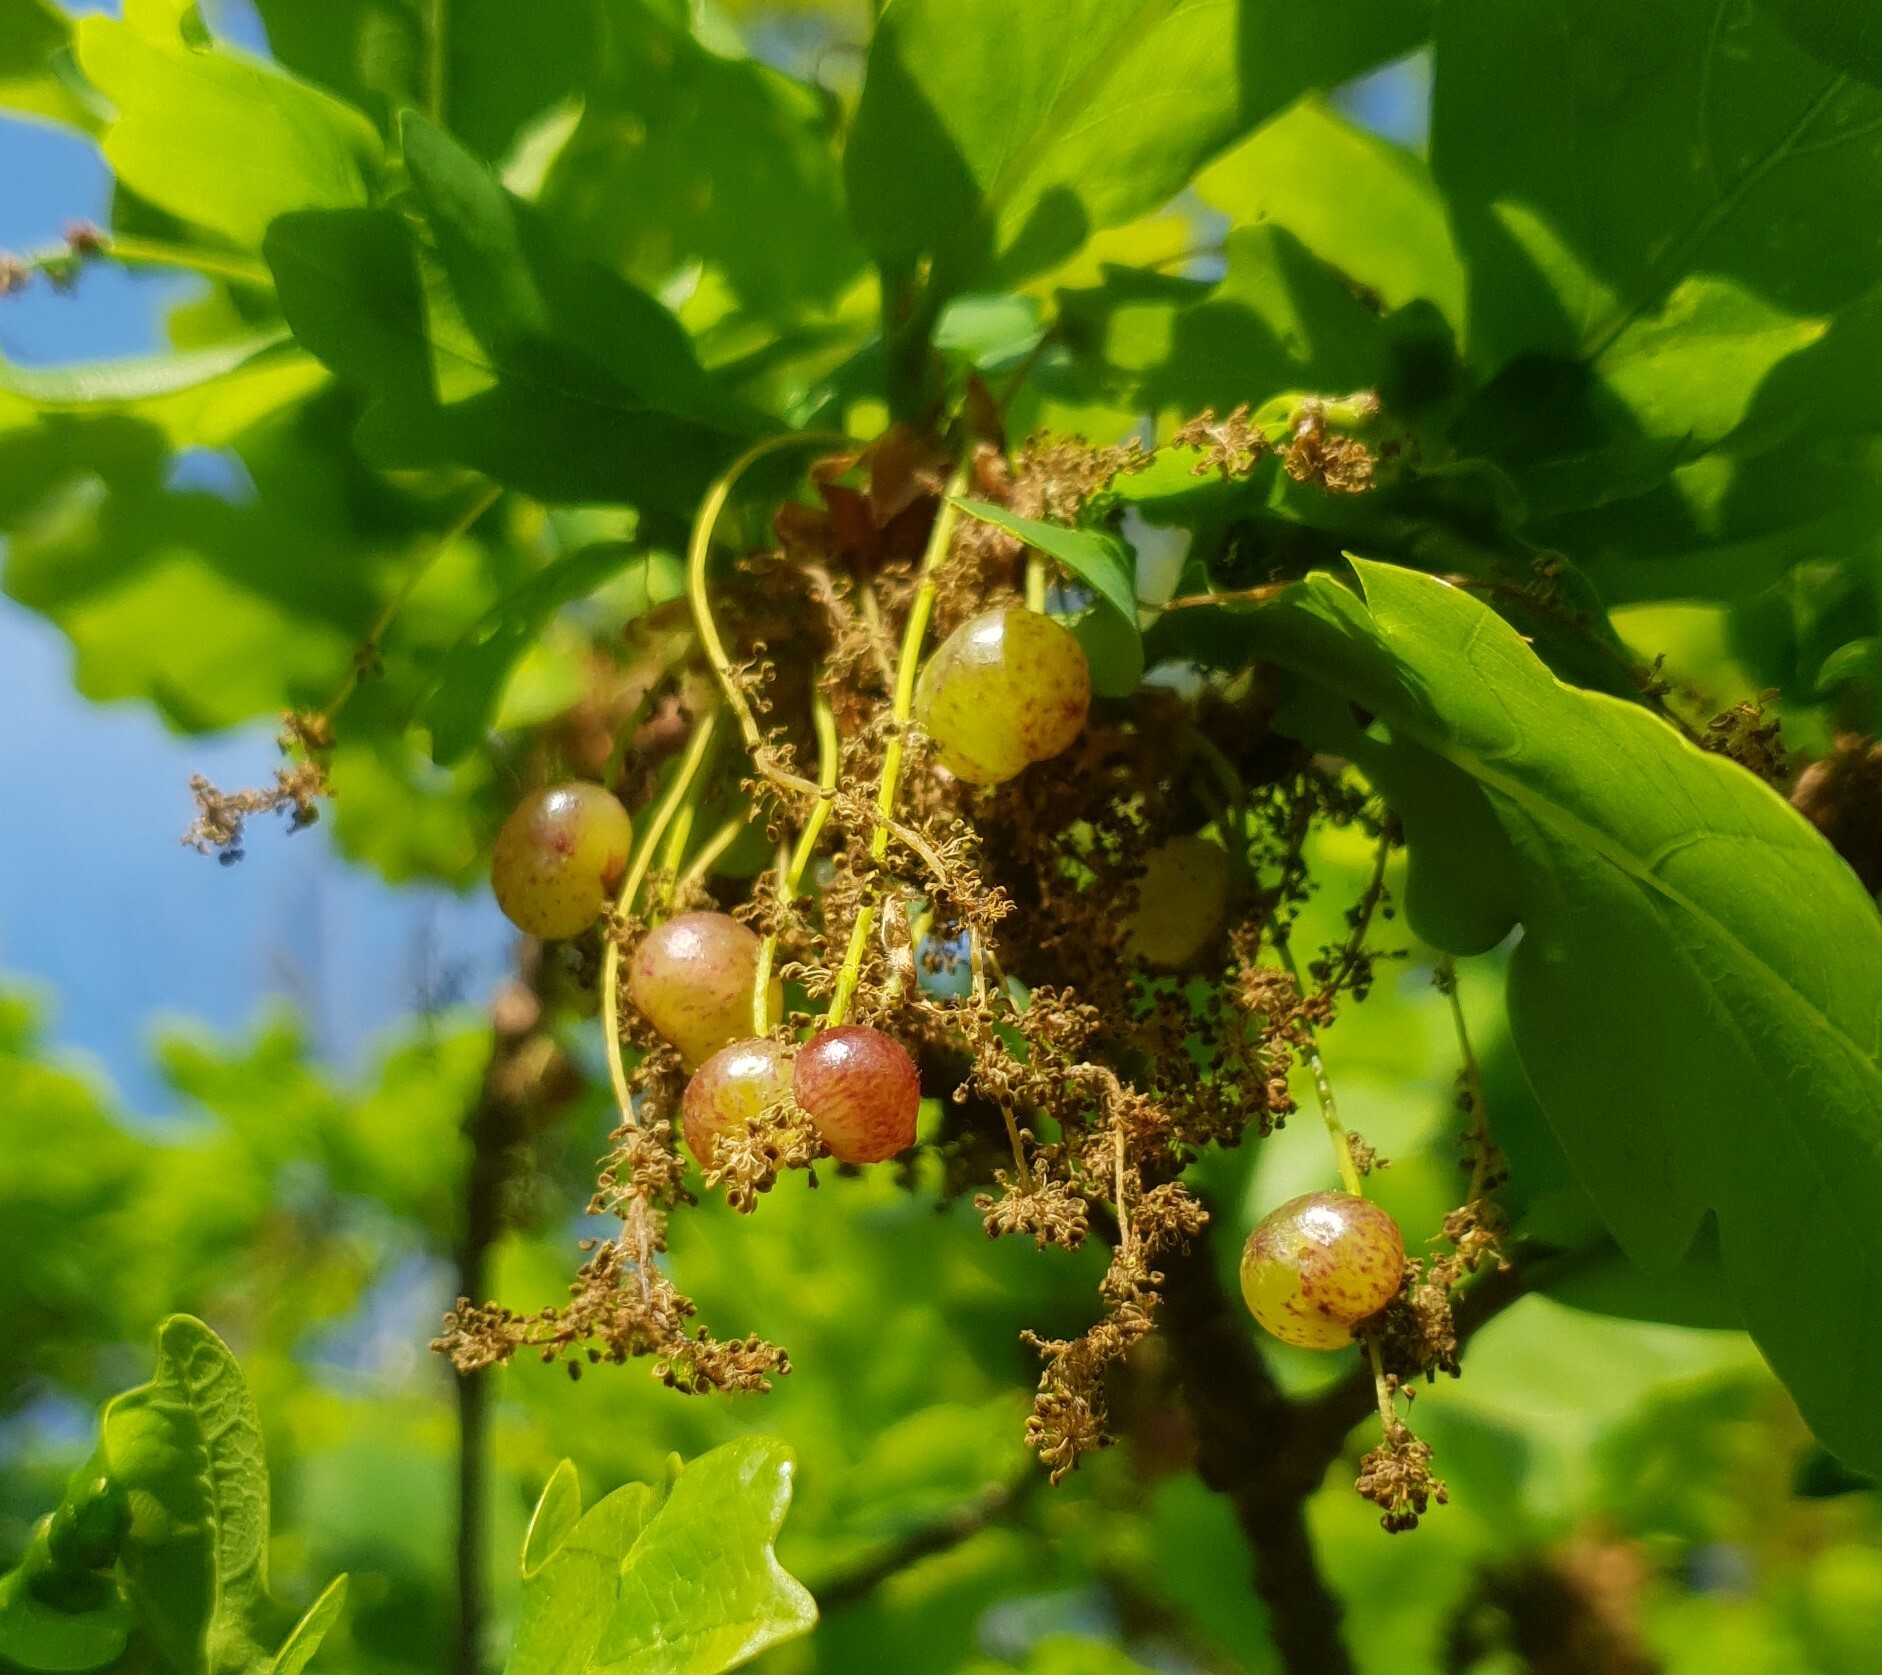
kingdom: Animalia
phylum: Arthropoda
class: Insecta
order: Hymenoptera
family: Cynipidae
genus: Neuroterus
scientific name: Neuroterus quercusbaccarum
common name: Common spangle gall
